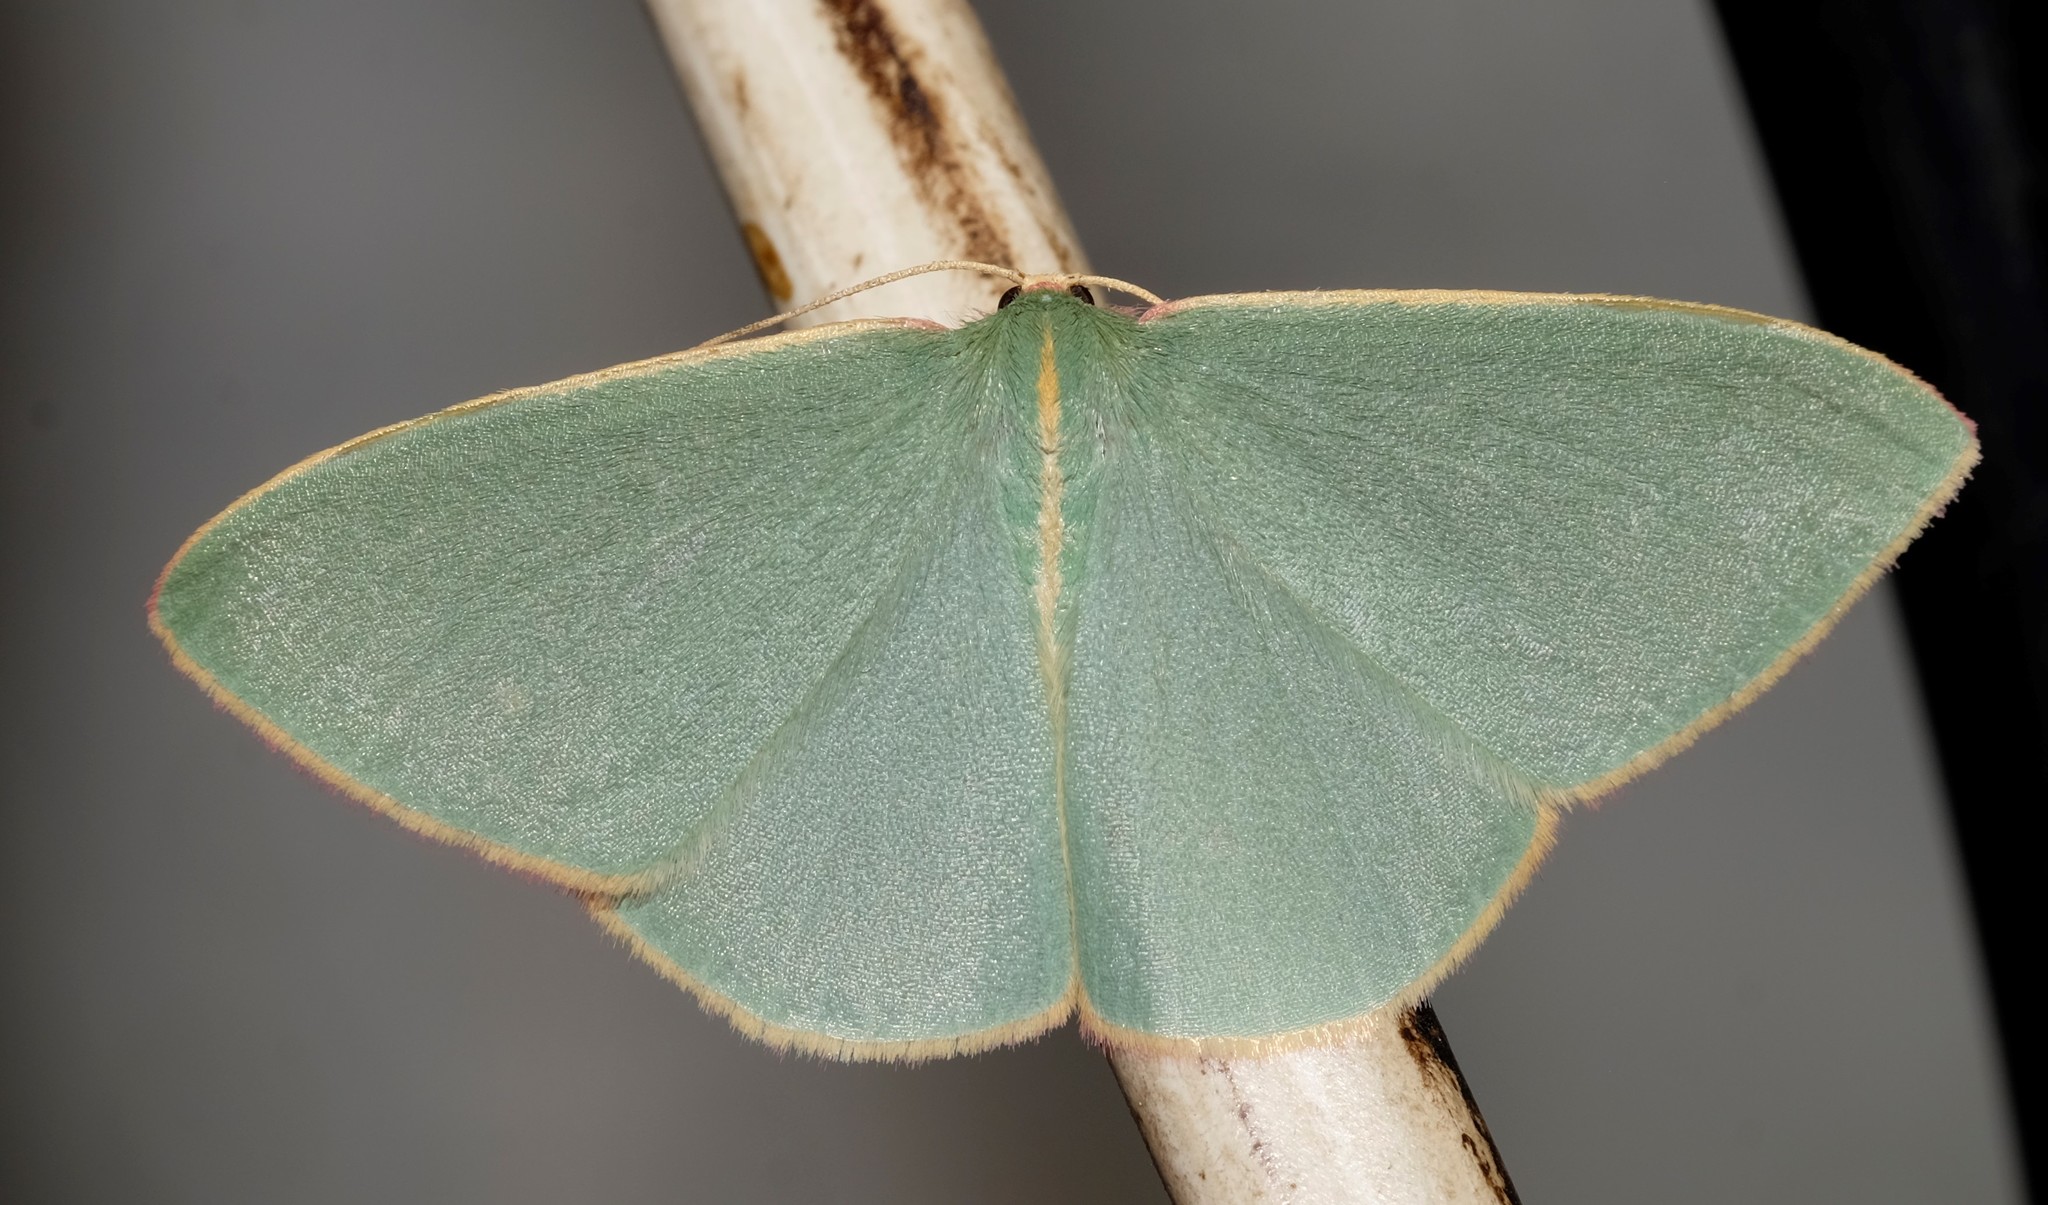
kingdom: Animalia
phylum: Arthropoda
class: Insecta
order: Lepidoptera
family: Geometridae
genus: Chlorocoma
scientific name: Chlorocoma assimilis
